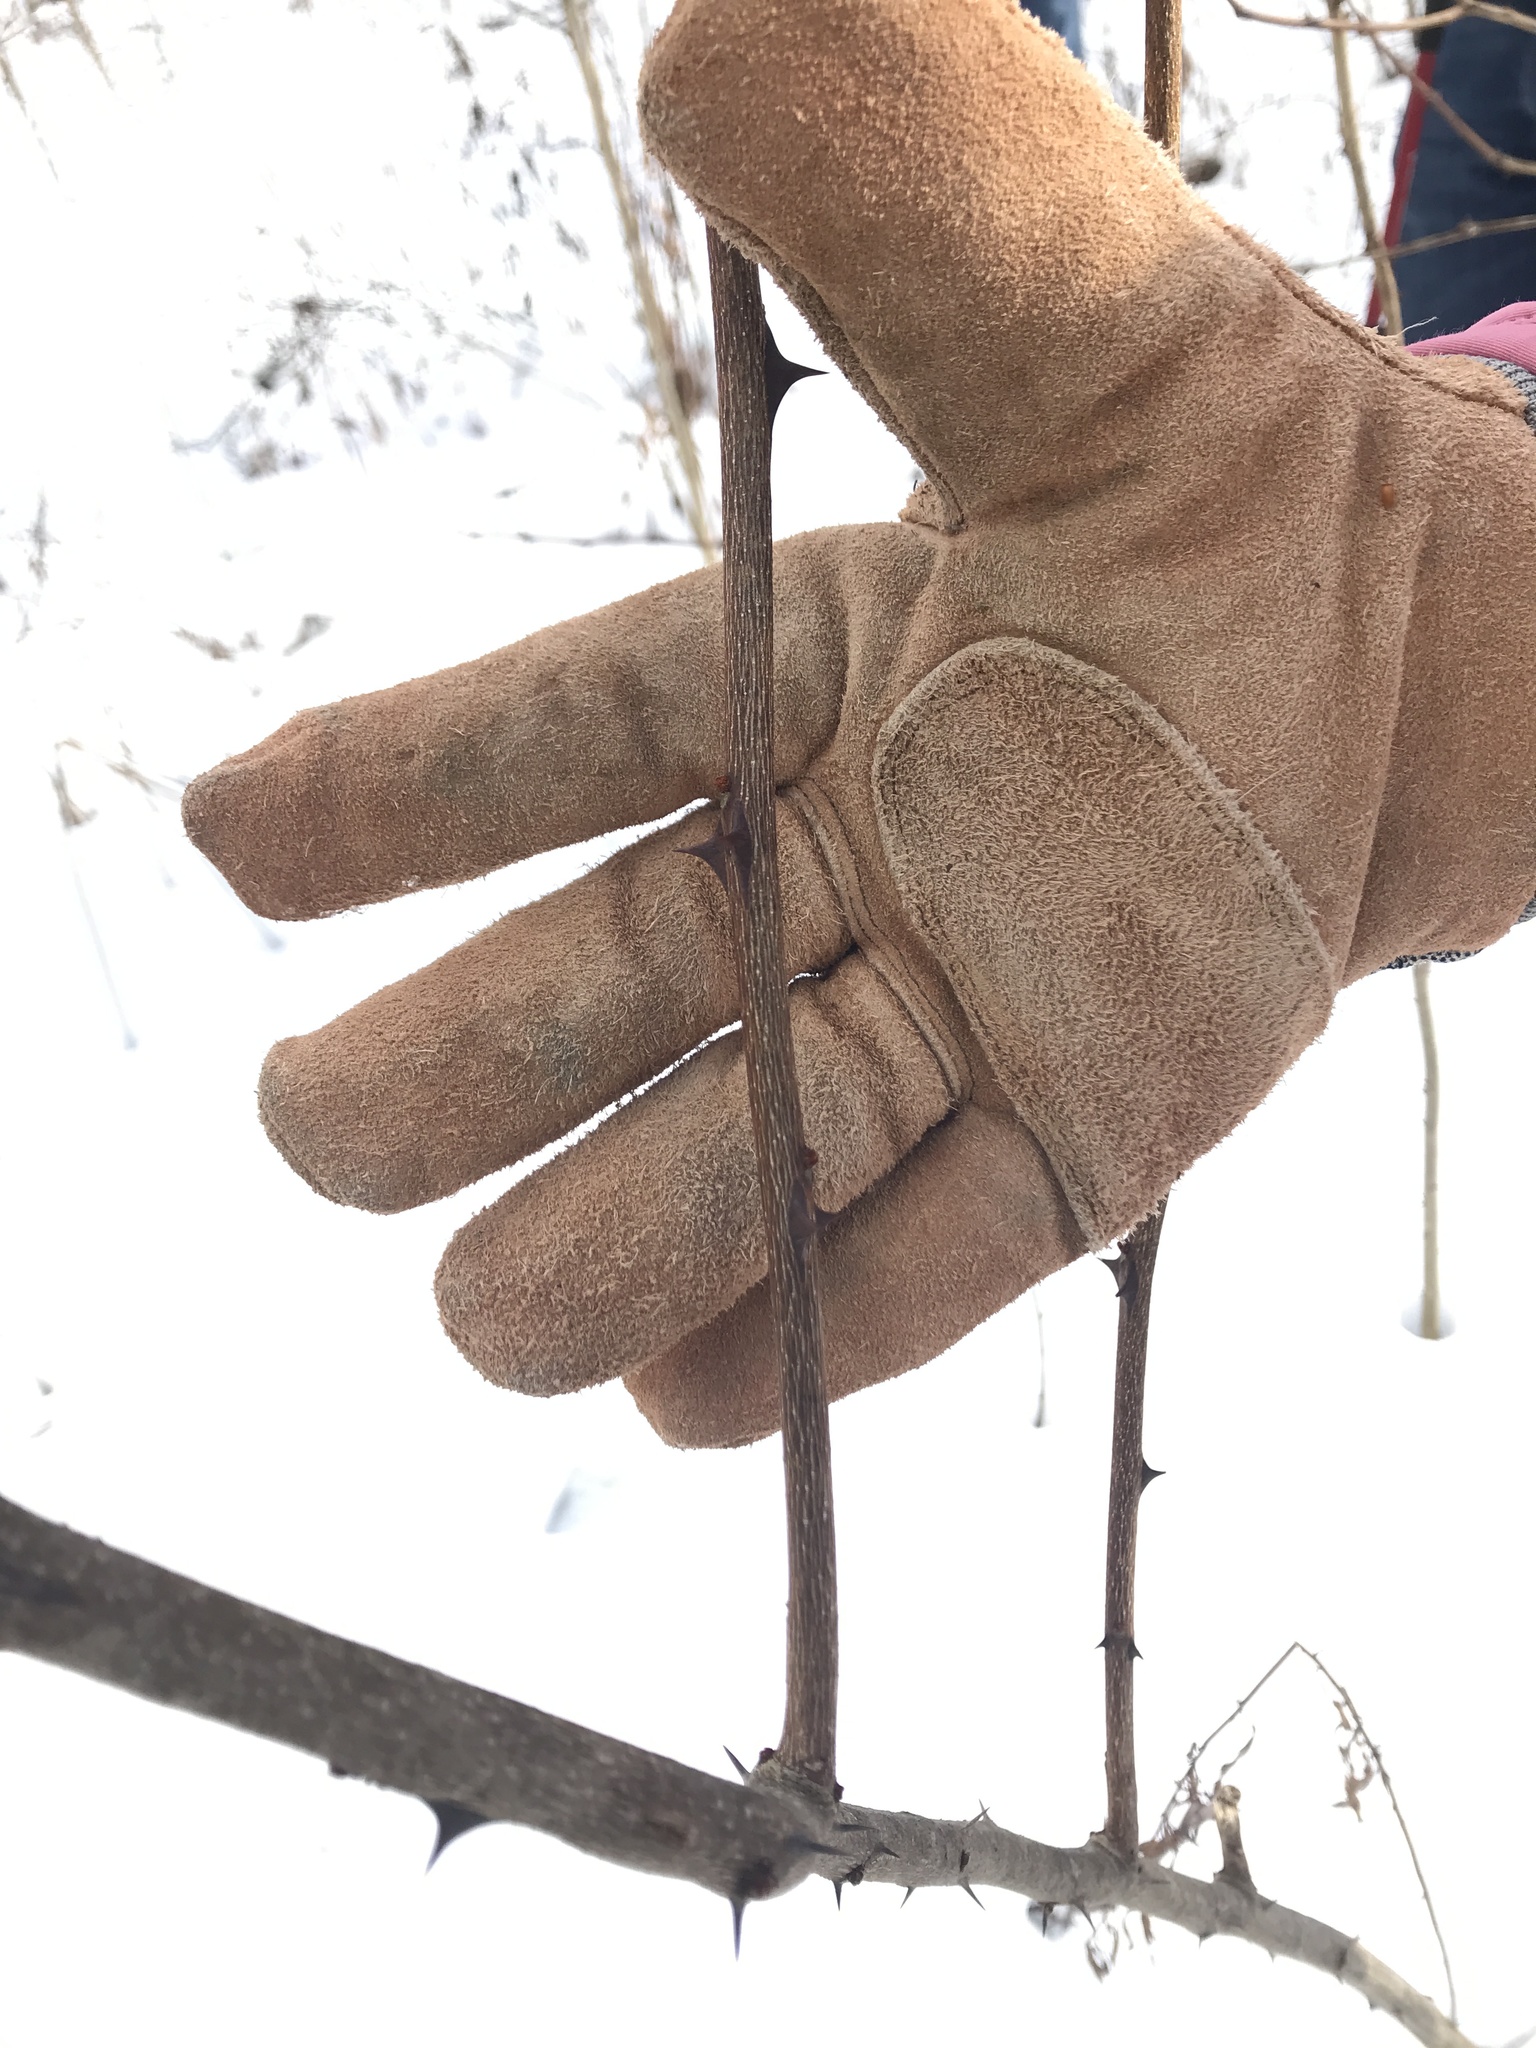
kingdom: Plantae
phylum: Tracheophyta
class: Magnoliopsida
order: Sapindales
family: Rutaceae
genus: Zanthoxylum
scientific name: Zanthoxylum americanum
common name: Northern prickly-ash
